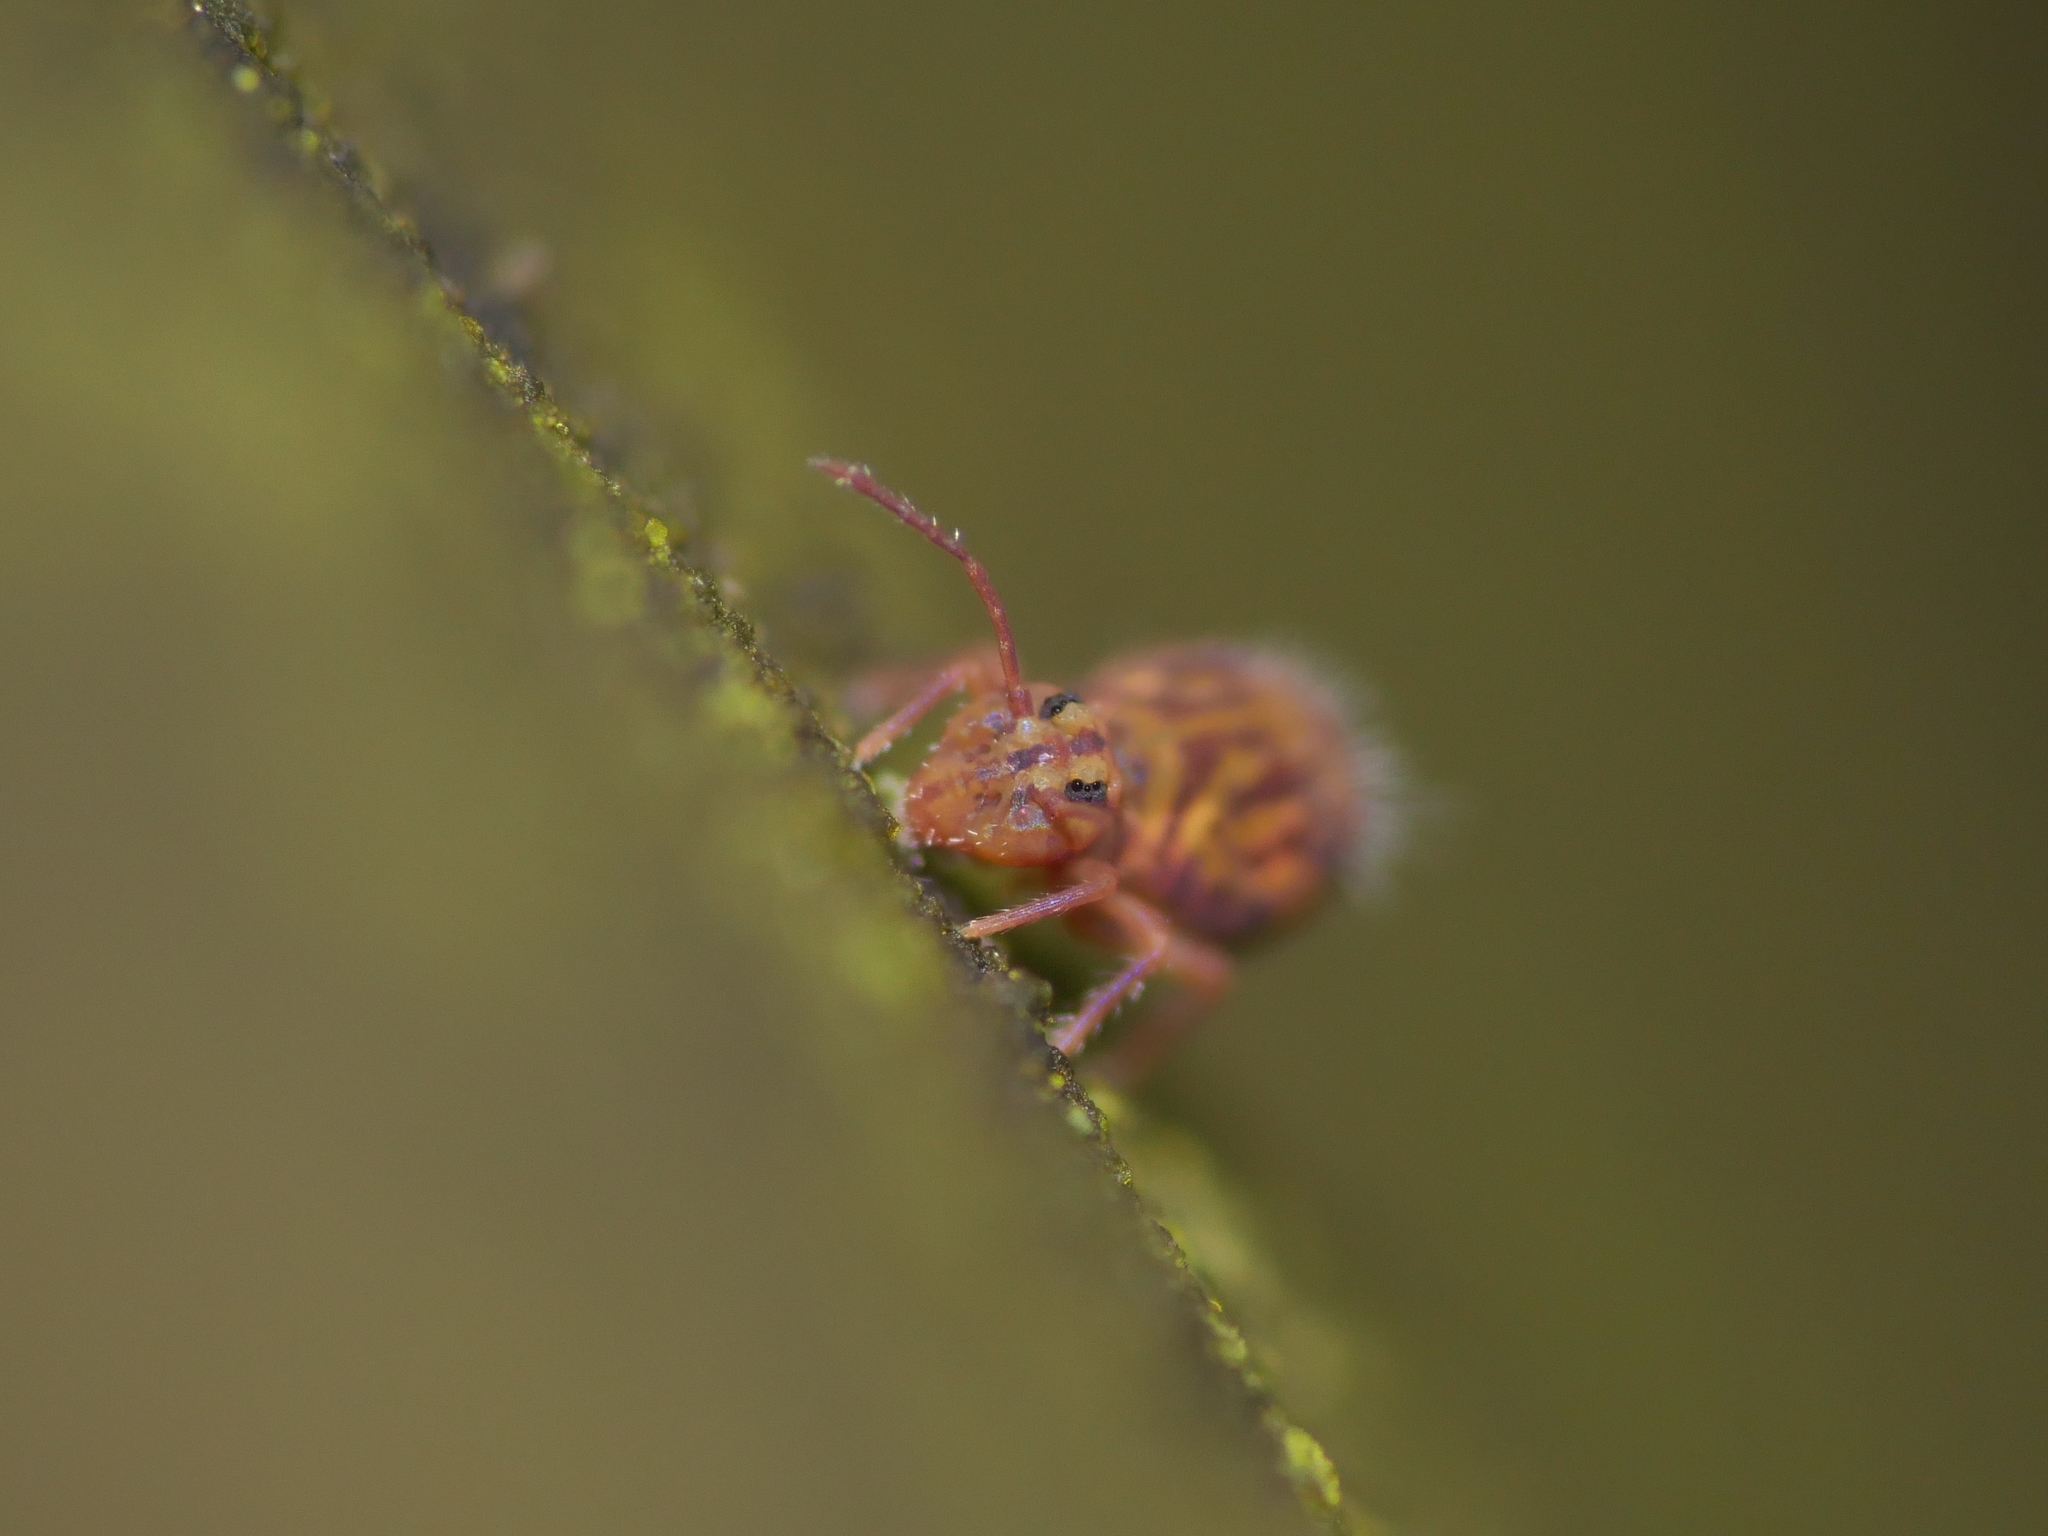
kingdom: Animalia
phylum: Arthropoda
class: Collembola
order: Symphypleona
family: Dicyrtomidae
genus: Dicyrtomina
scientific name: Dicyrtomina ornata
